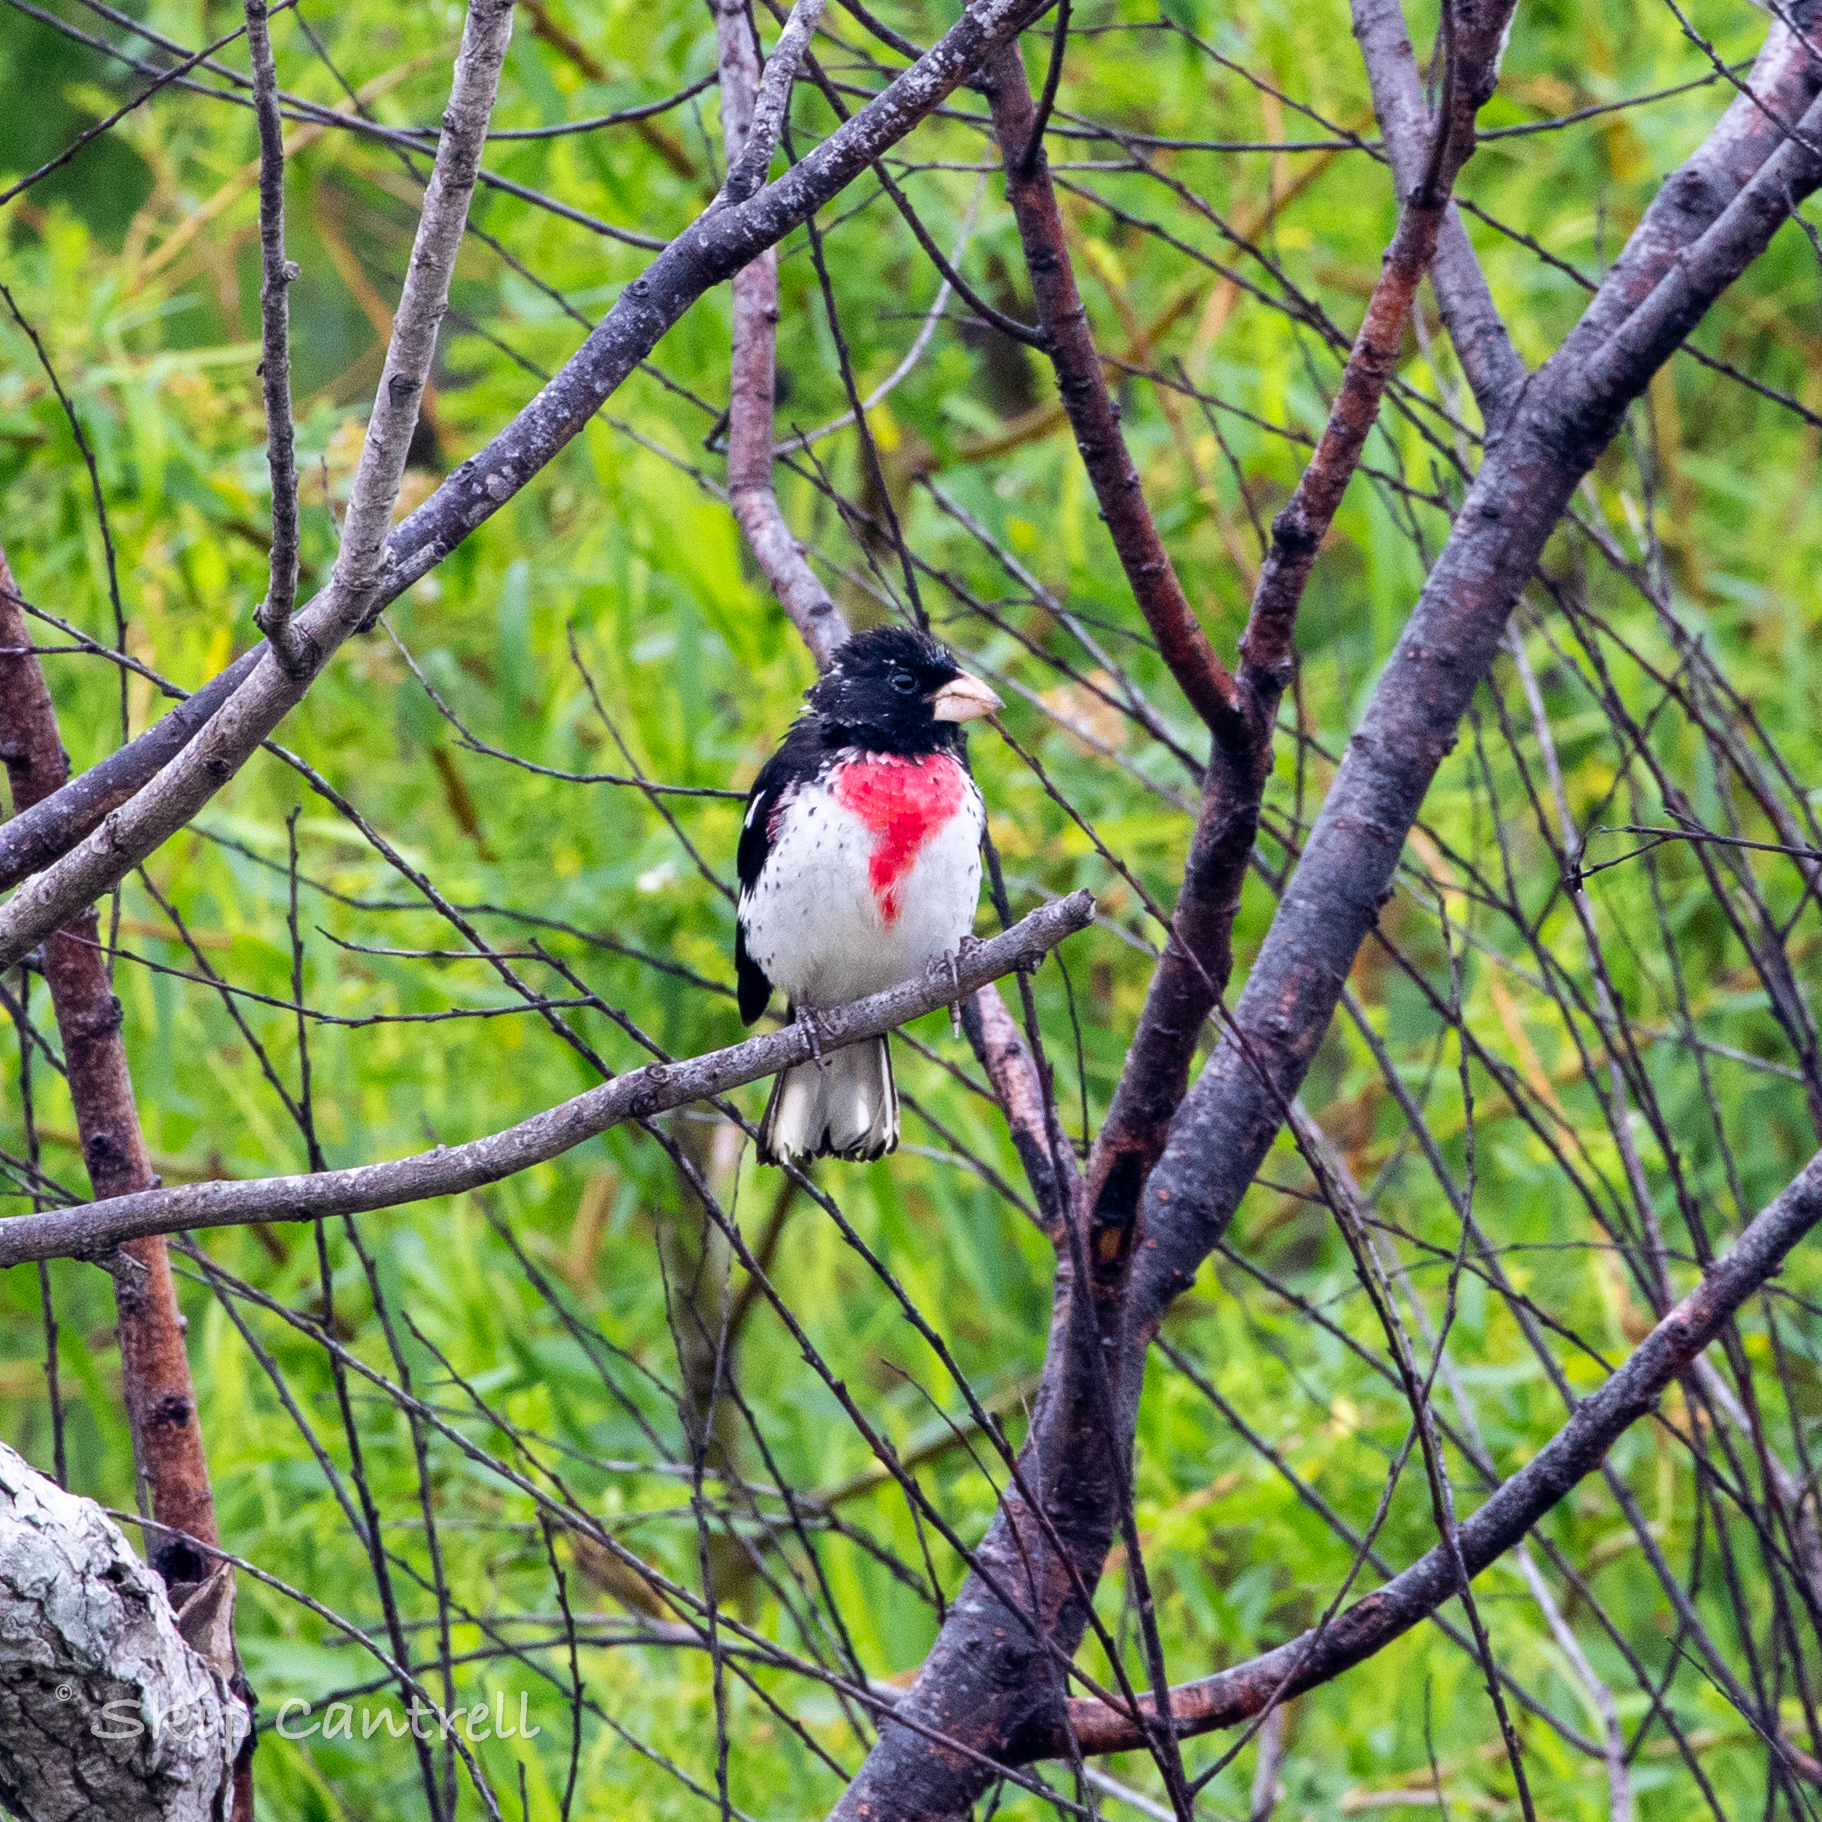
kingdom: Animalia
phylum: Chordata
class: Aves
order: Passeriformes
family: Cardinalidae
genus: Pheucticus
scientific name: Pheucticus ludovicianus
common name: Rose-breasted grosbeak
